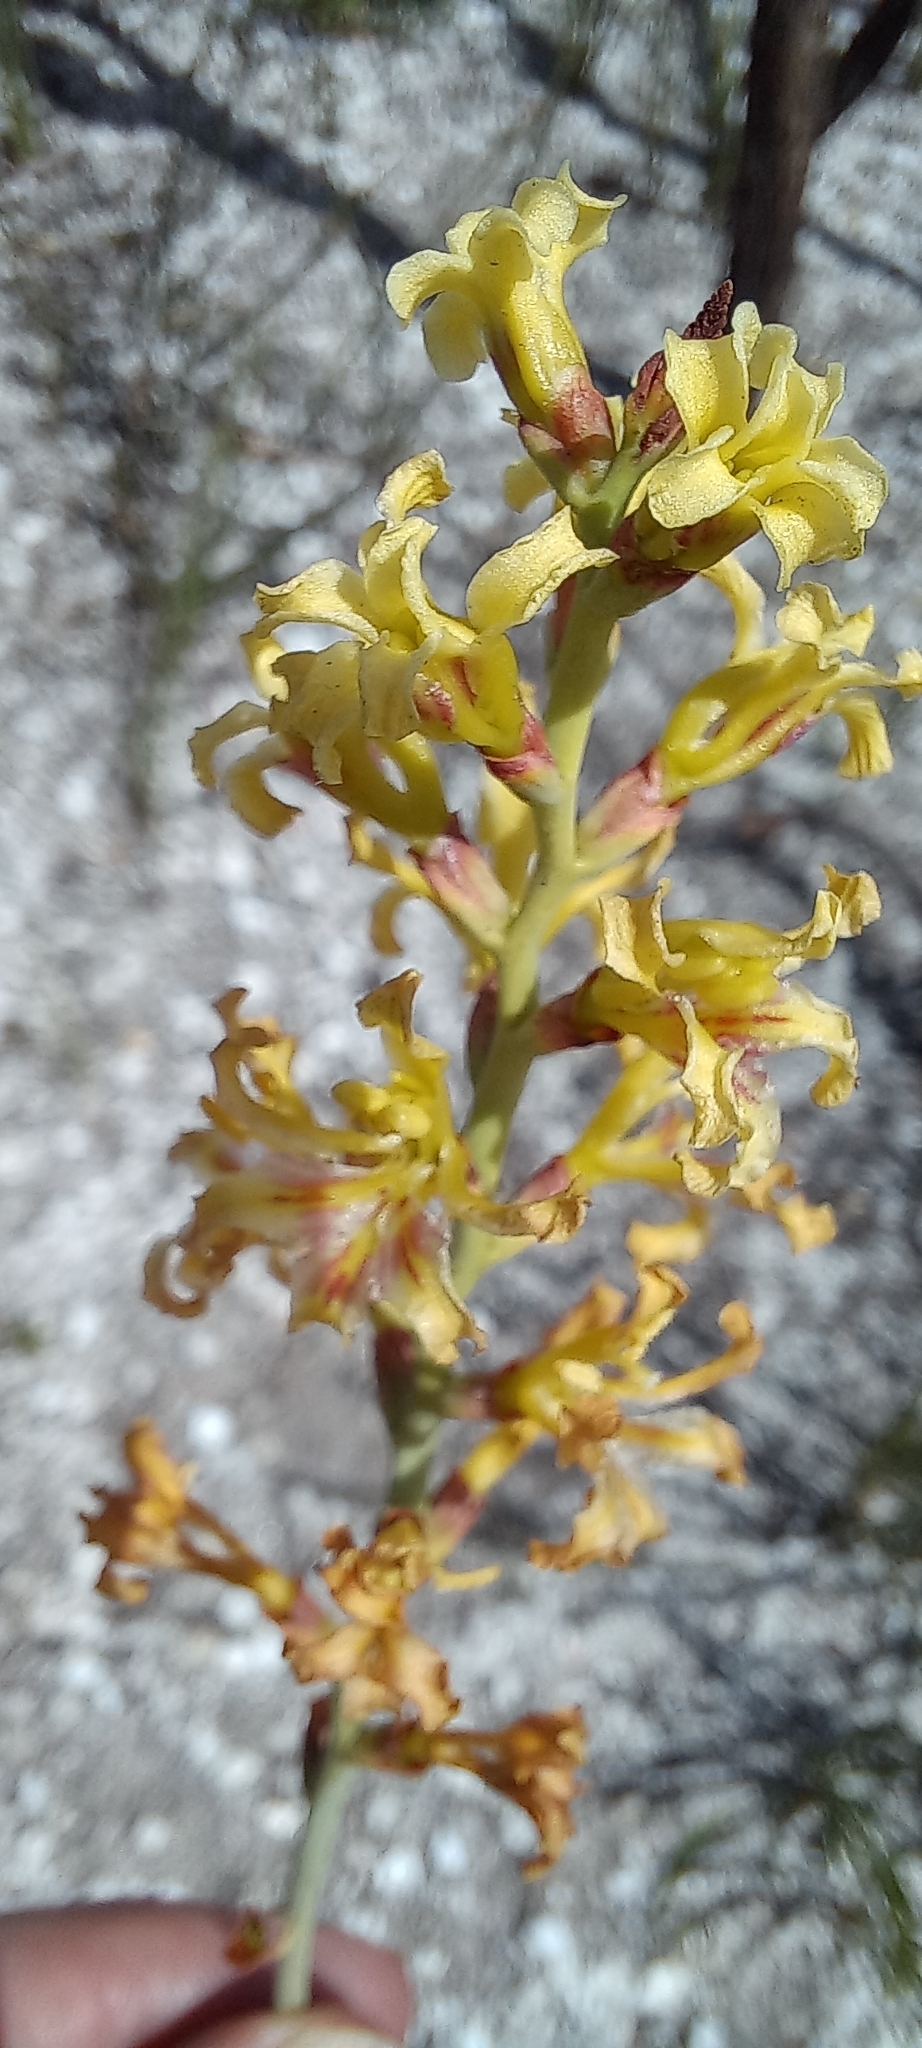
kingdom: Plantae
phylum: Tracheophyta
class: Liliopsida
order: Asparagales
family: Iridaceae
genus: Tritoniopsis
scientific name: Tritoniopsis unguicularis
